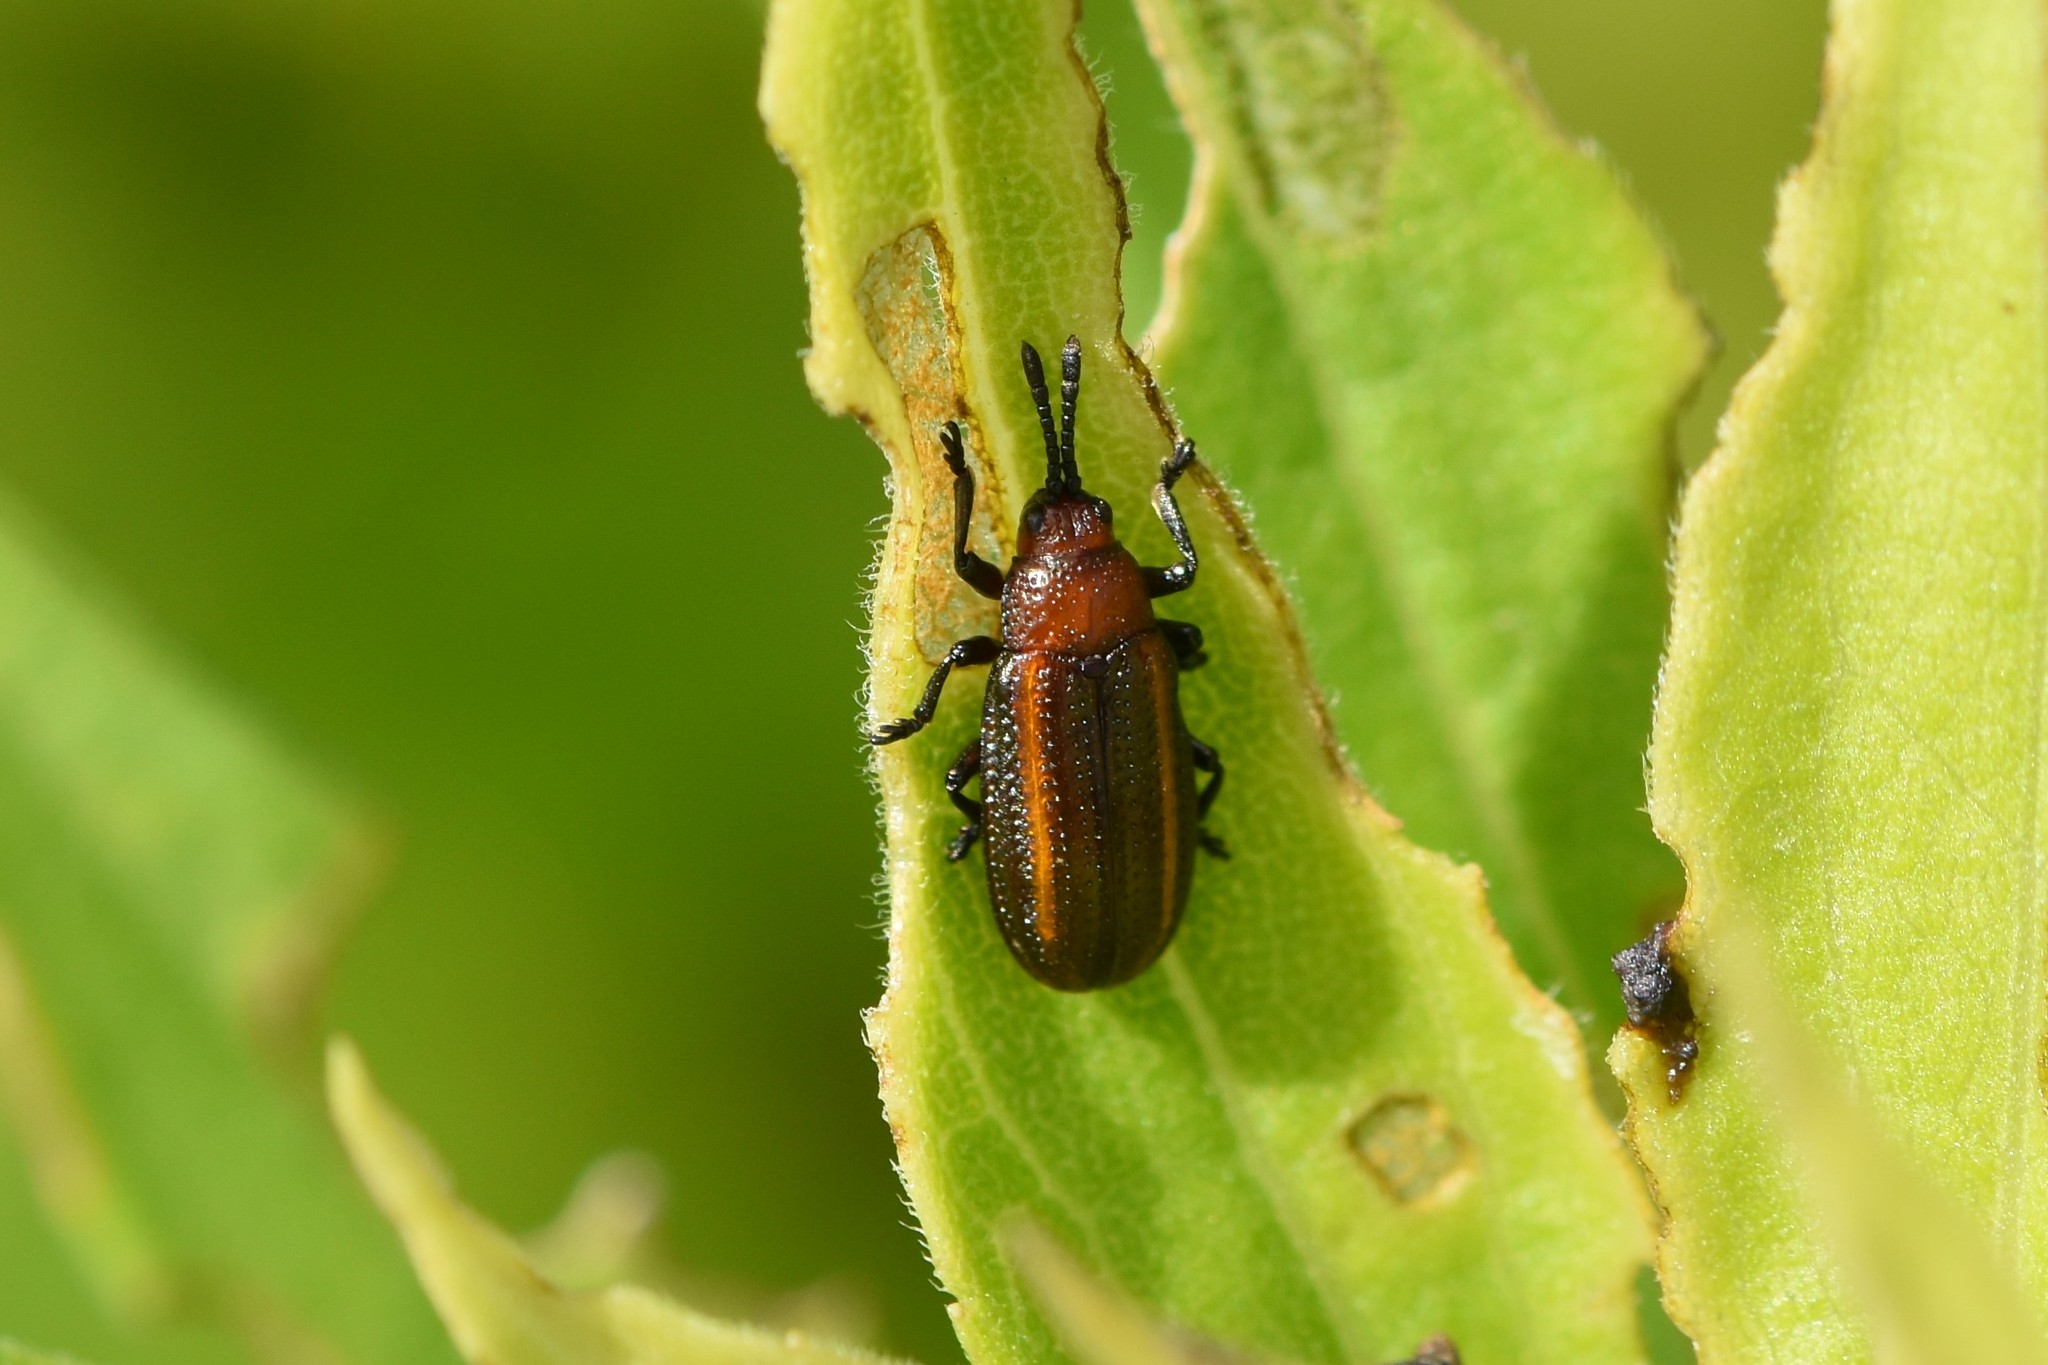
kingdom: Animalia
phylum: Arthropoda
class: Insecta
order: Coleoptera
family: Chrysomelidae
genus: Microrhopala
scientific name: Microrhopala vittata
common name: Goldenrod leaf miner beetle
